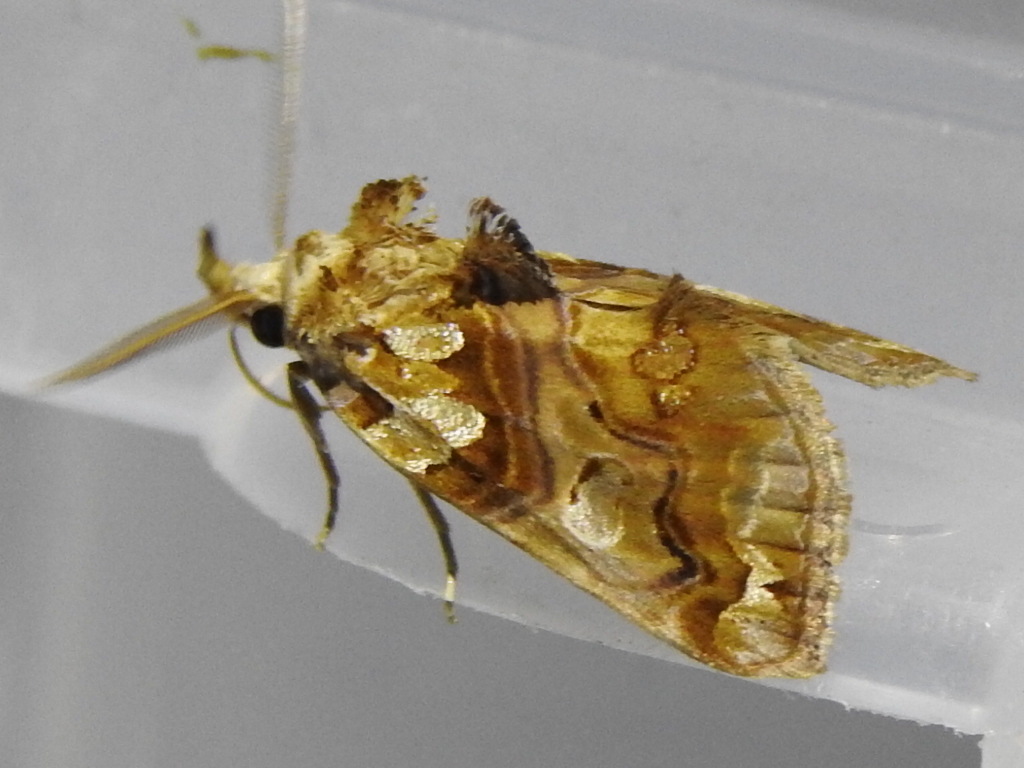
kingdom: Animalia
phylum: Arthropoda
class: Insecta
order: Lepidoptera
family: Erebidae
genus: Plusiodonta
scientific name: Plusiodonta compressipalpis
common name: Moonseed moth
